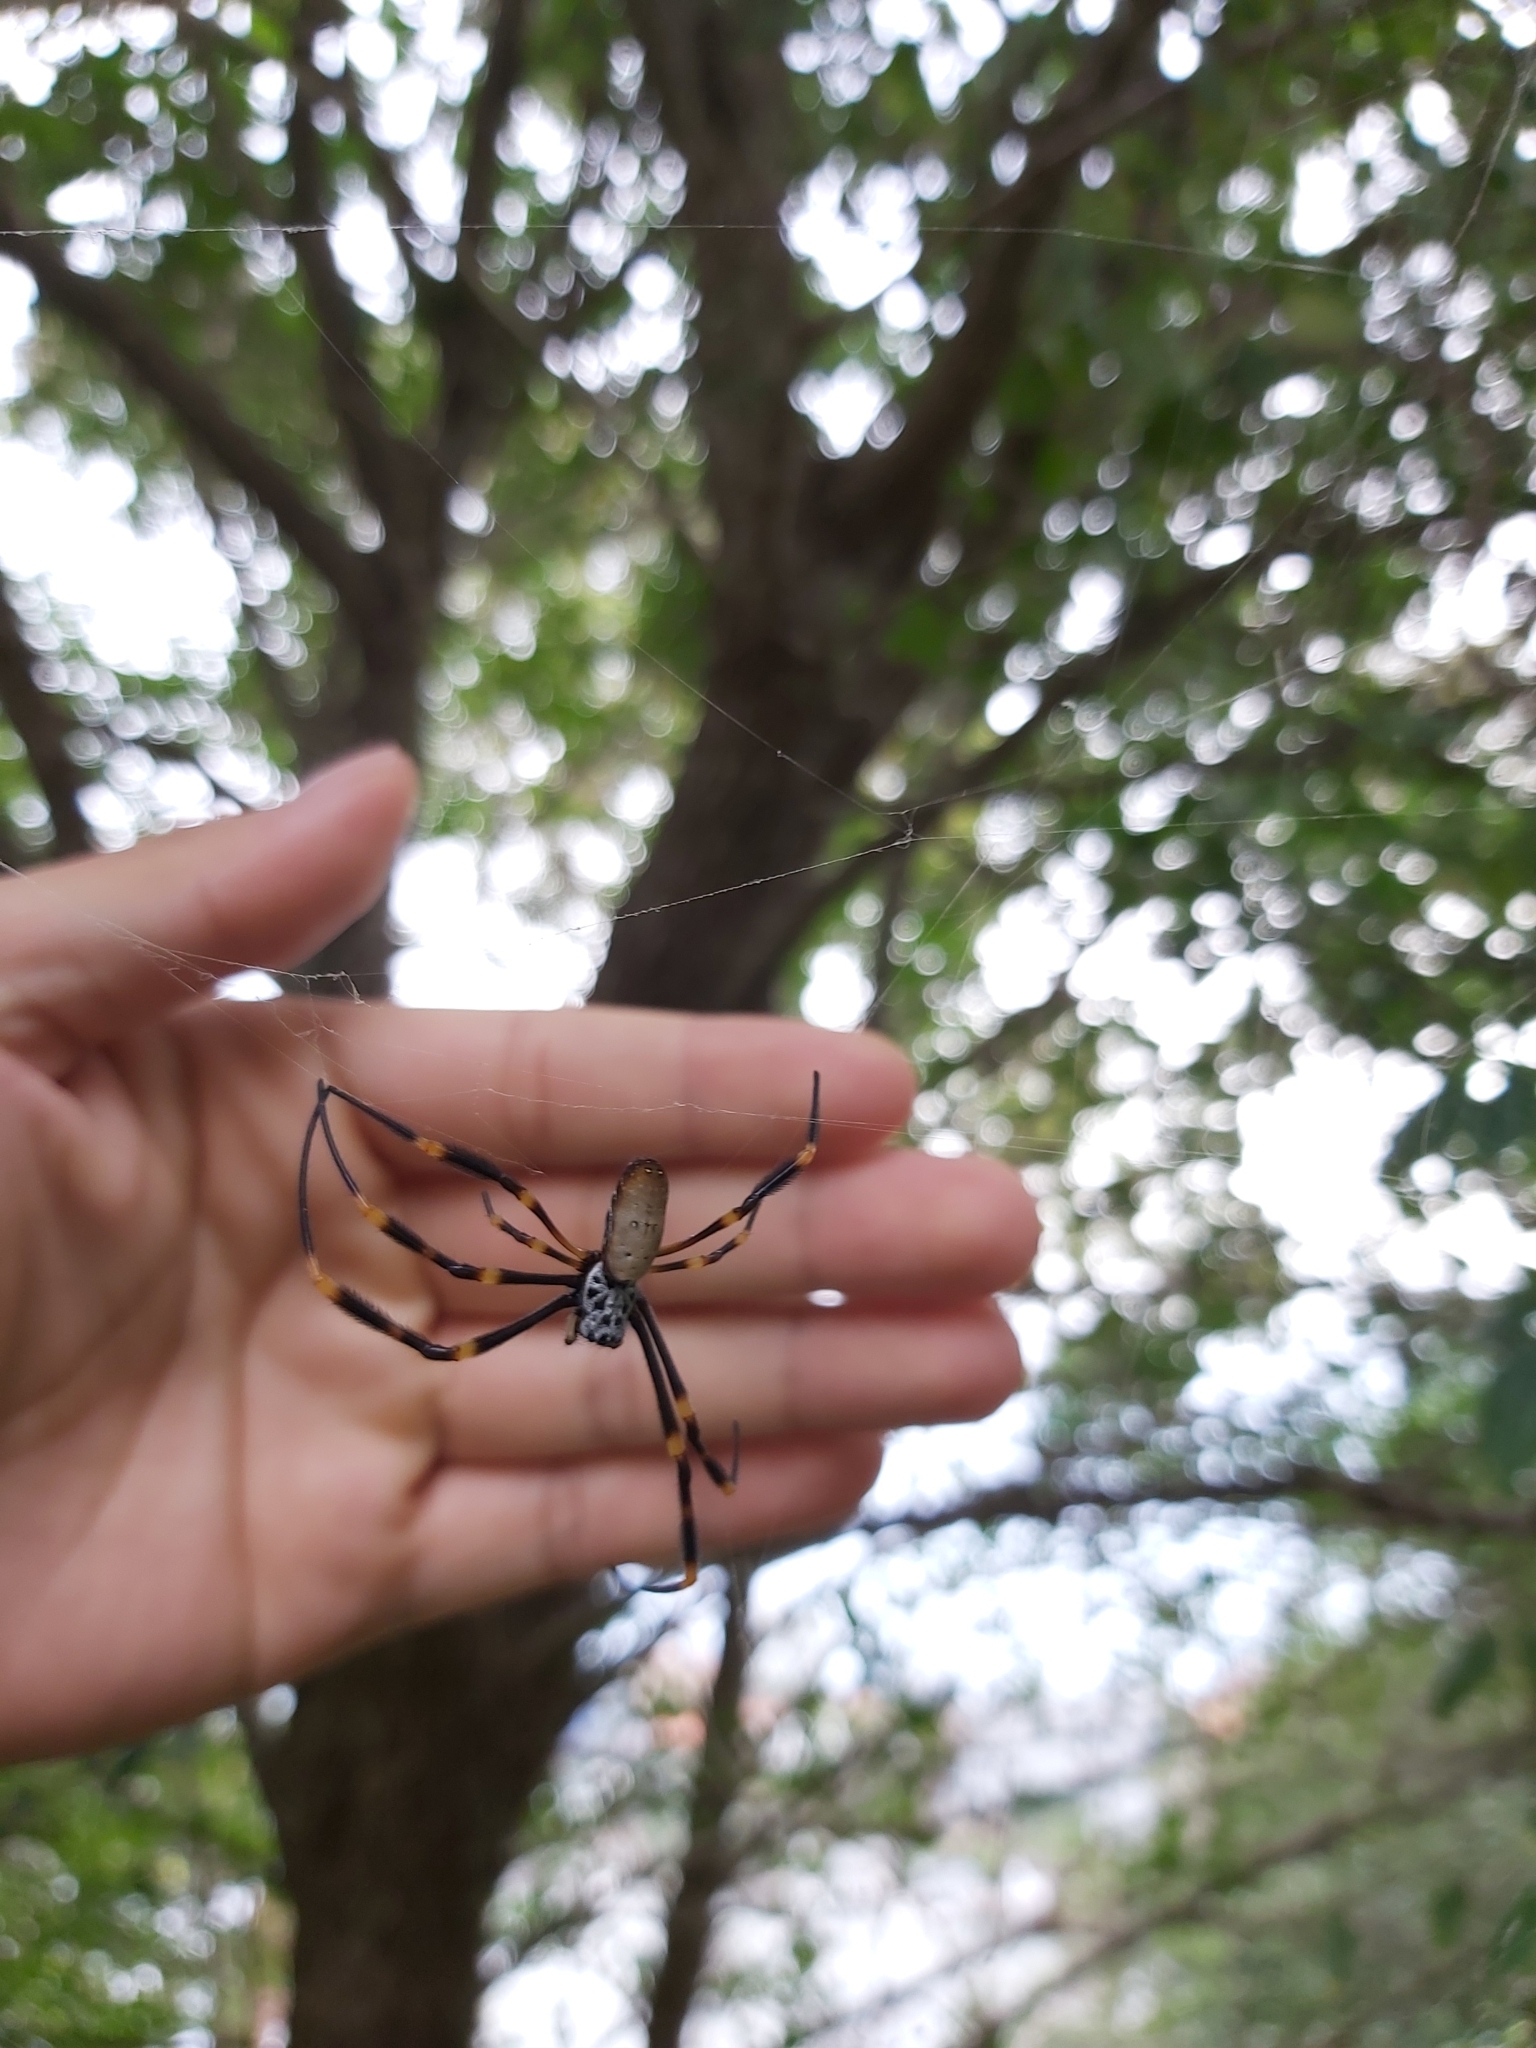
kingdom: Animalia
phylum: Arthropoda
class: Arachnida
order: Araneae
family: Araneidae
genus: Trichonephila
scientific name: Trichonephila plumipes
